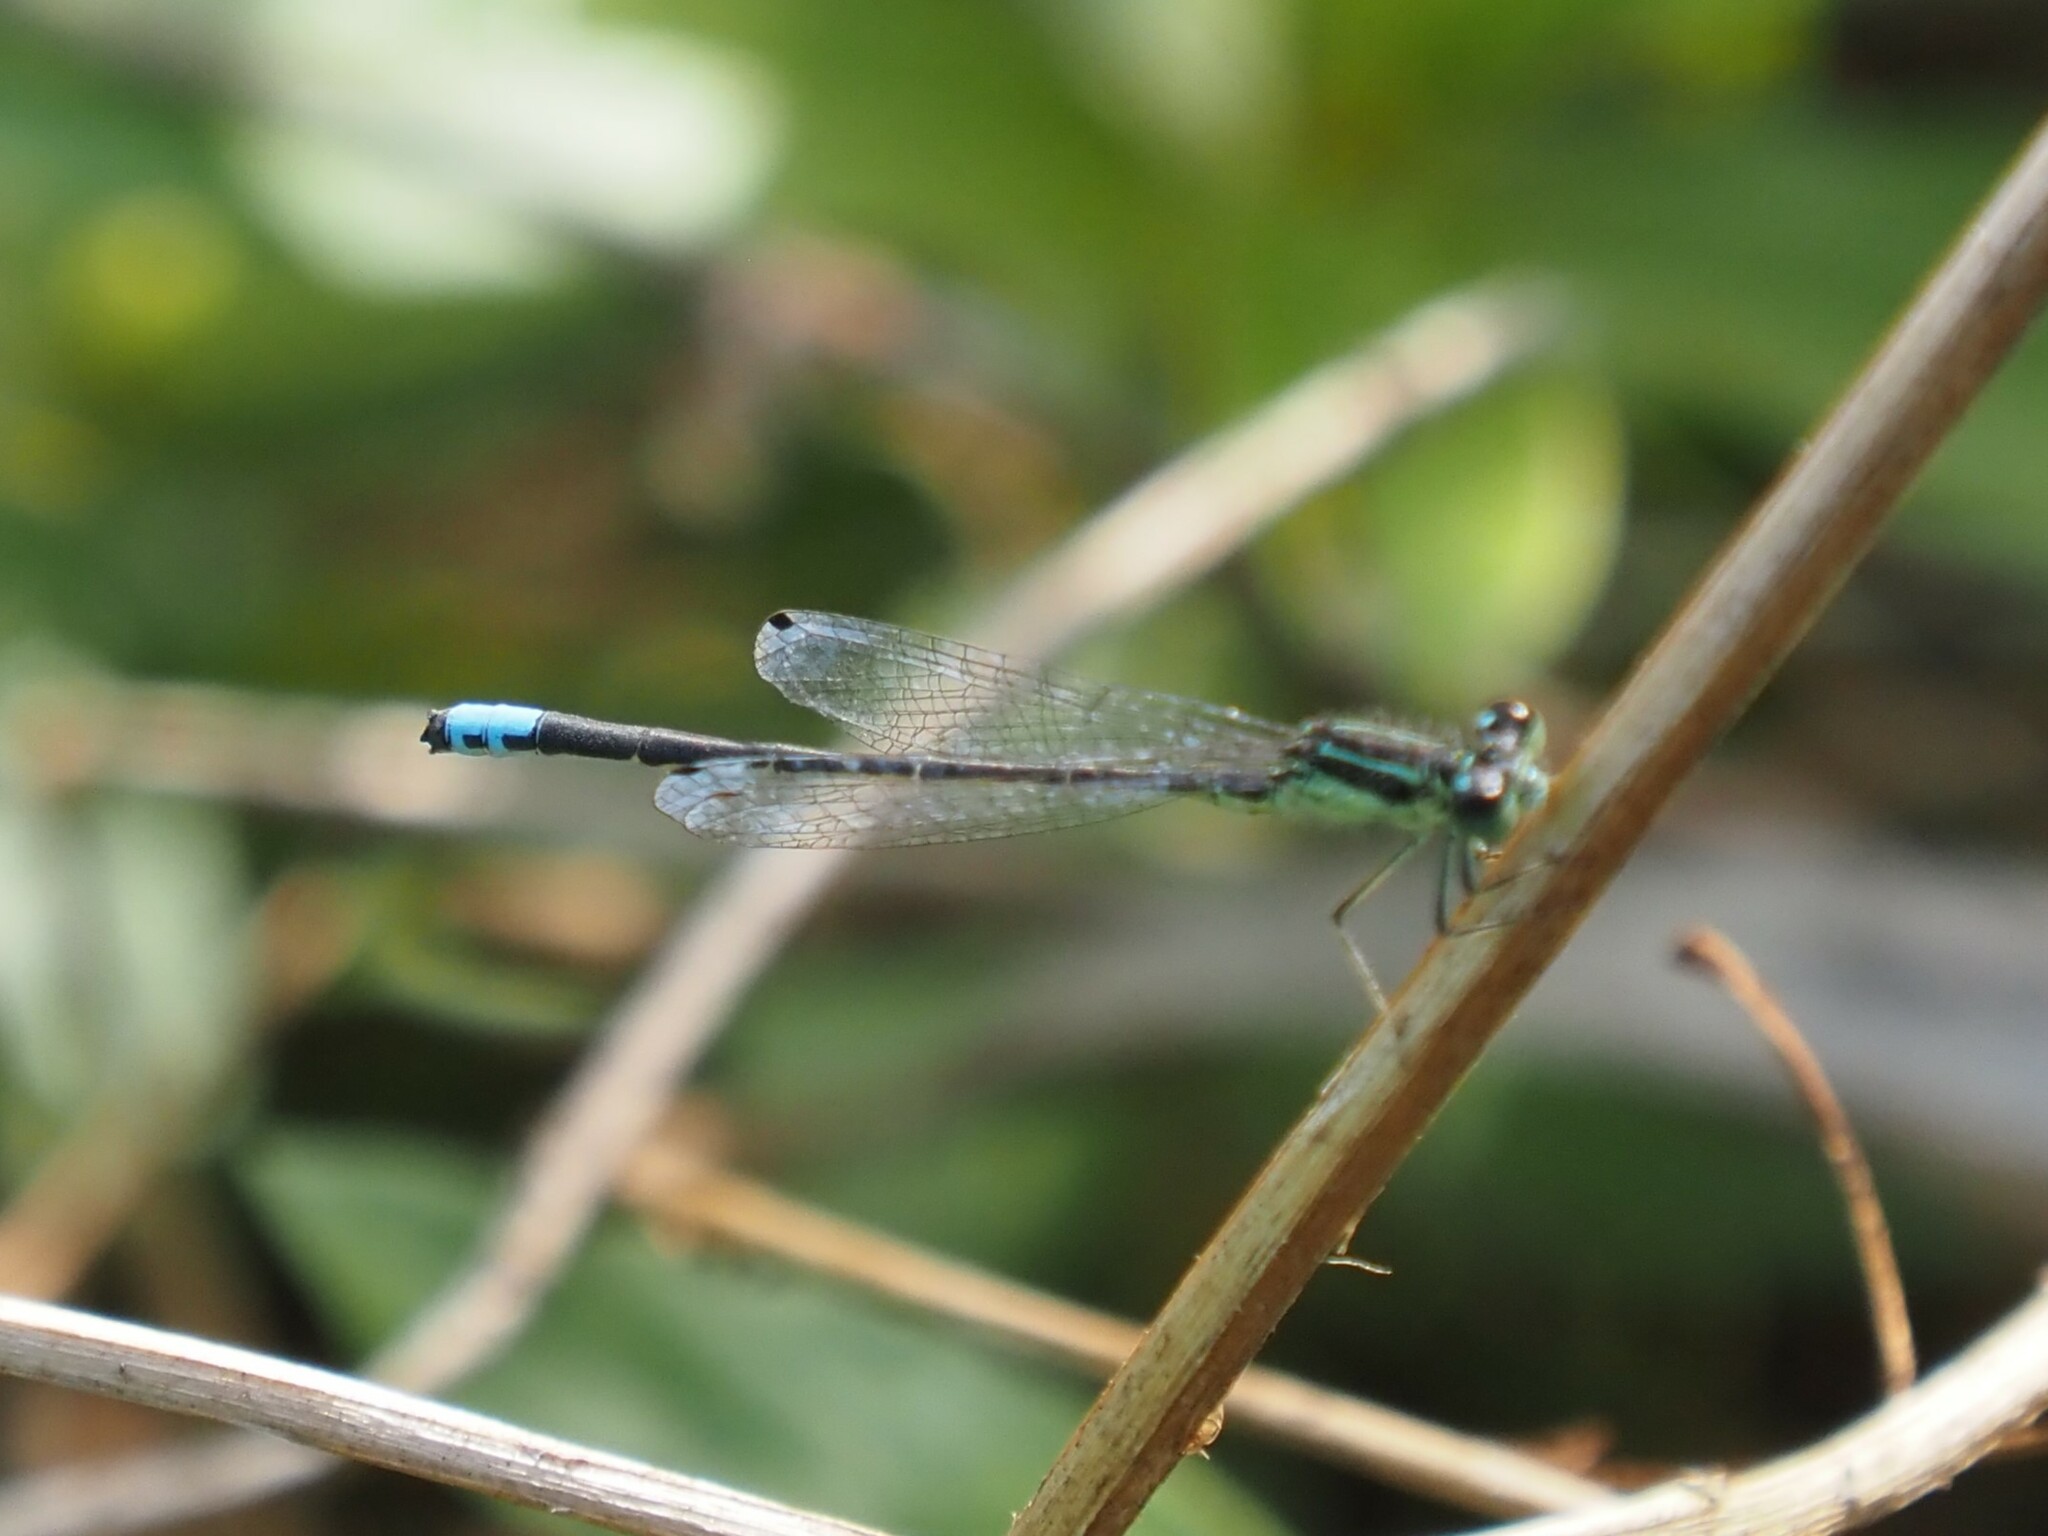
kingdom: Animalia
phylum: Arthropoda
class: Insecta
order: Odonata
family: Coenagrionidae
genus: Ischnura
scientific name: Ischnura verticalis
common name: Eastern forktail
